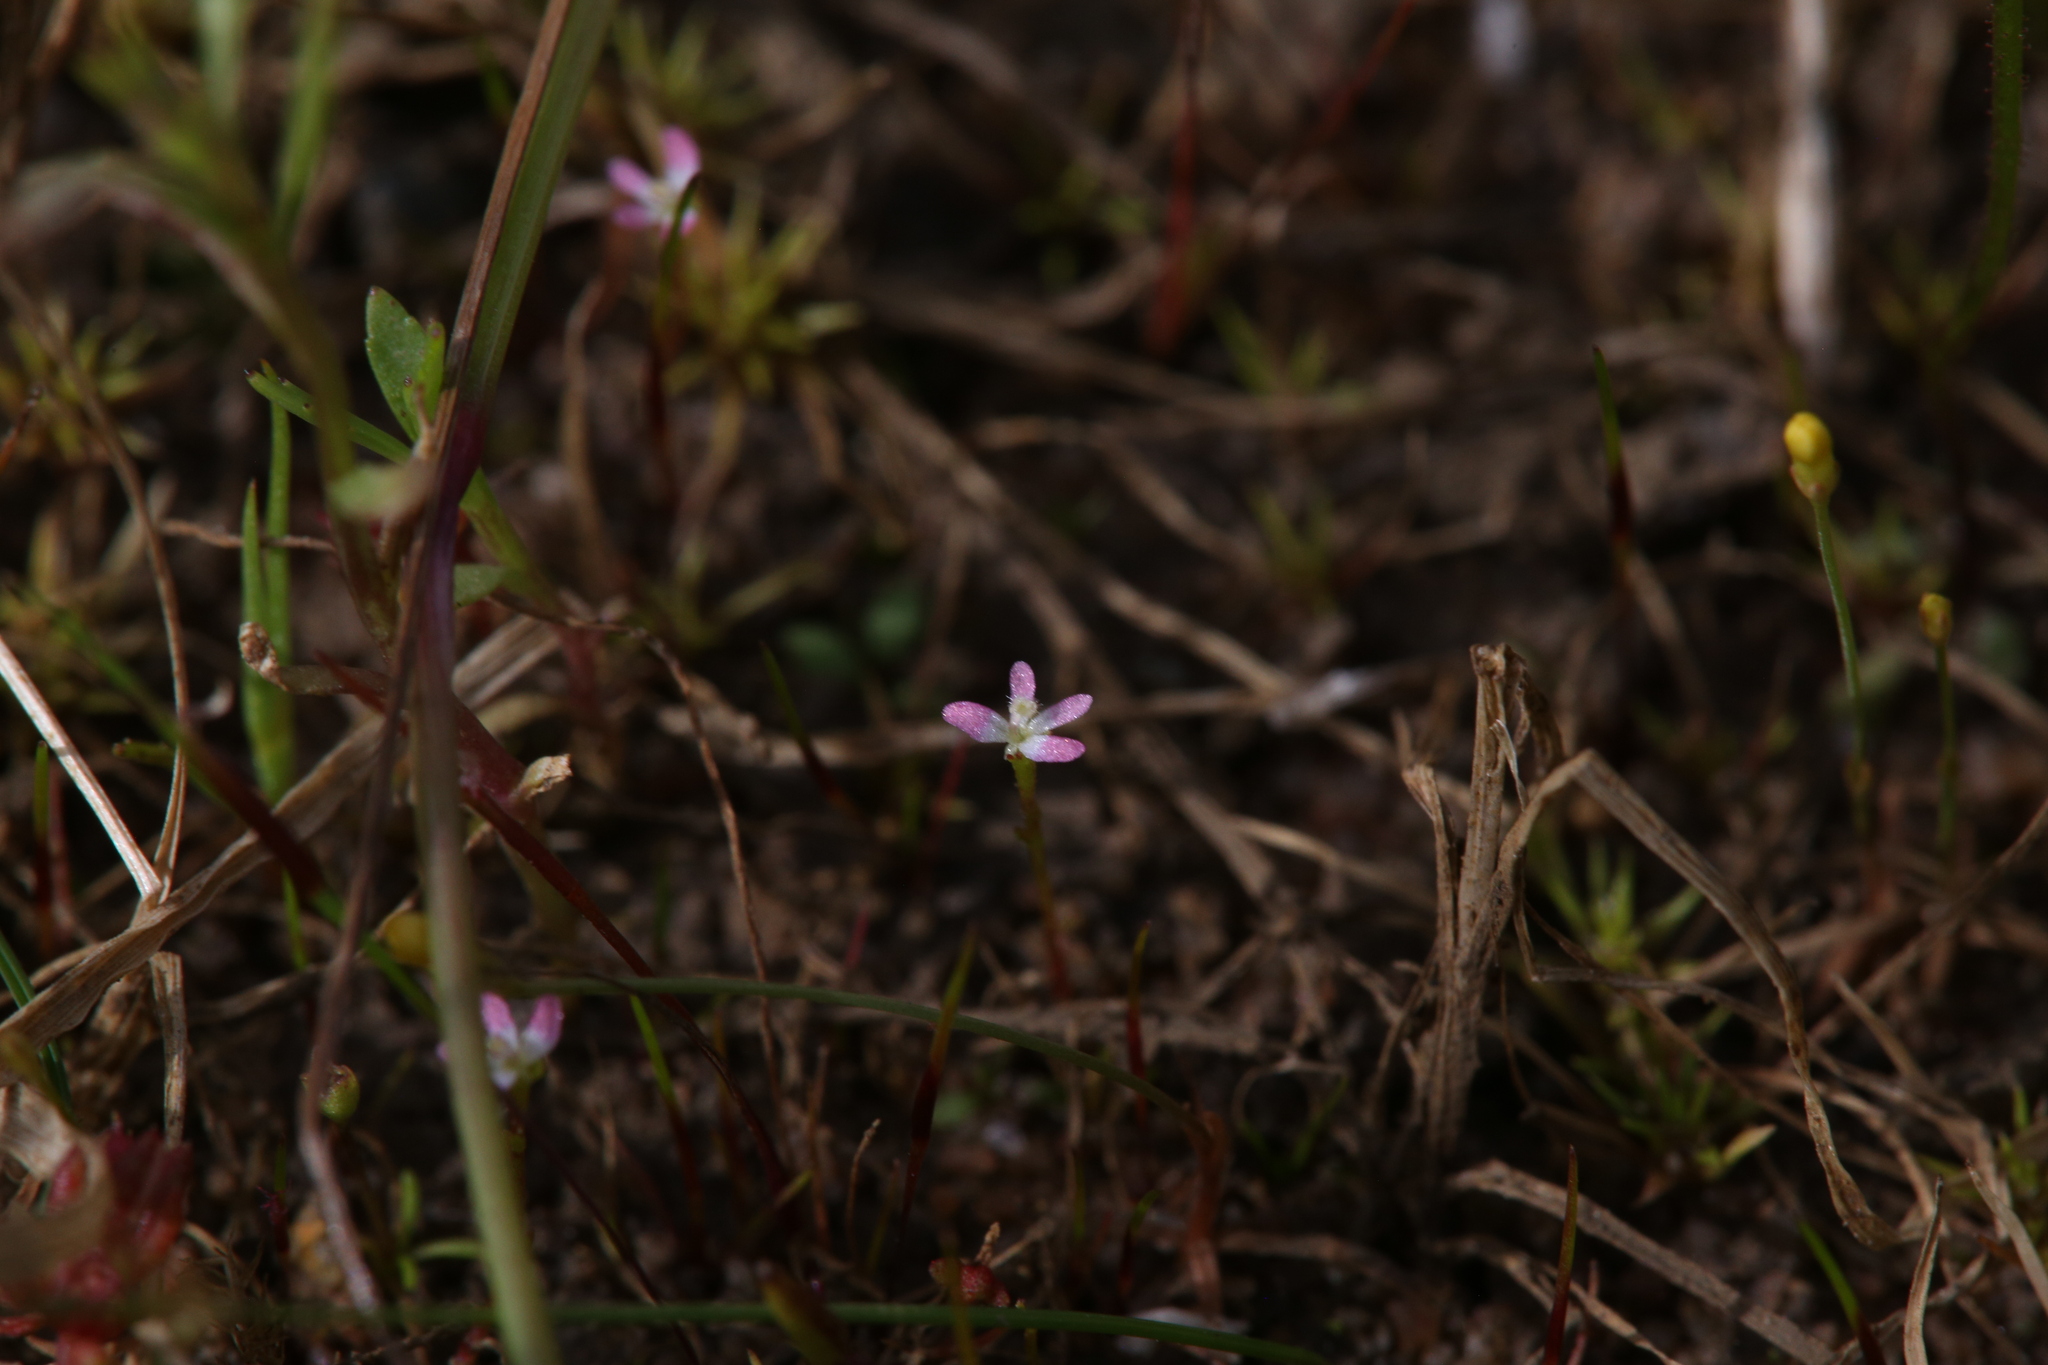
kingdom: Plantae
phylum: Tracheophyta
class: Magnoliopsida
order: Asterales
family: Stylidiaceae
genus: Stylidium
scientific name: Stylidium despectum
